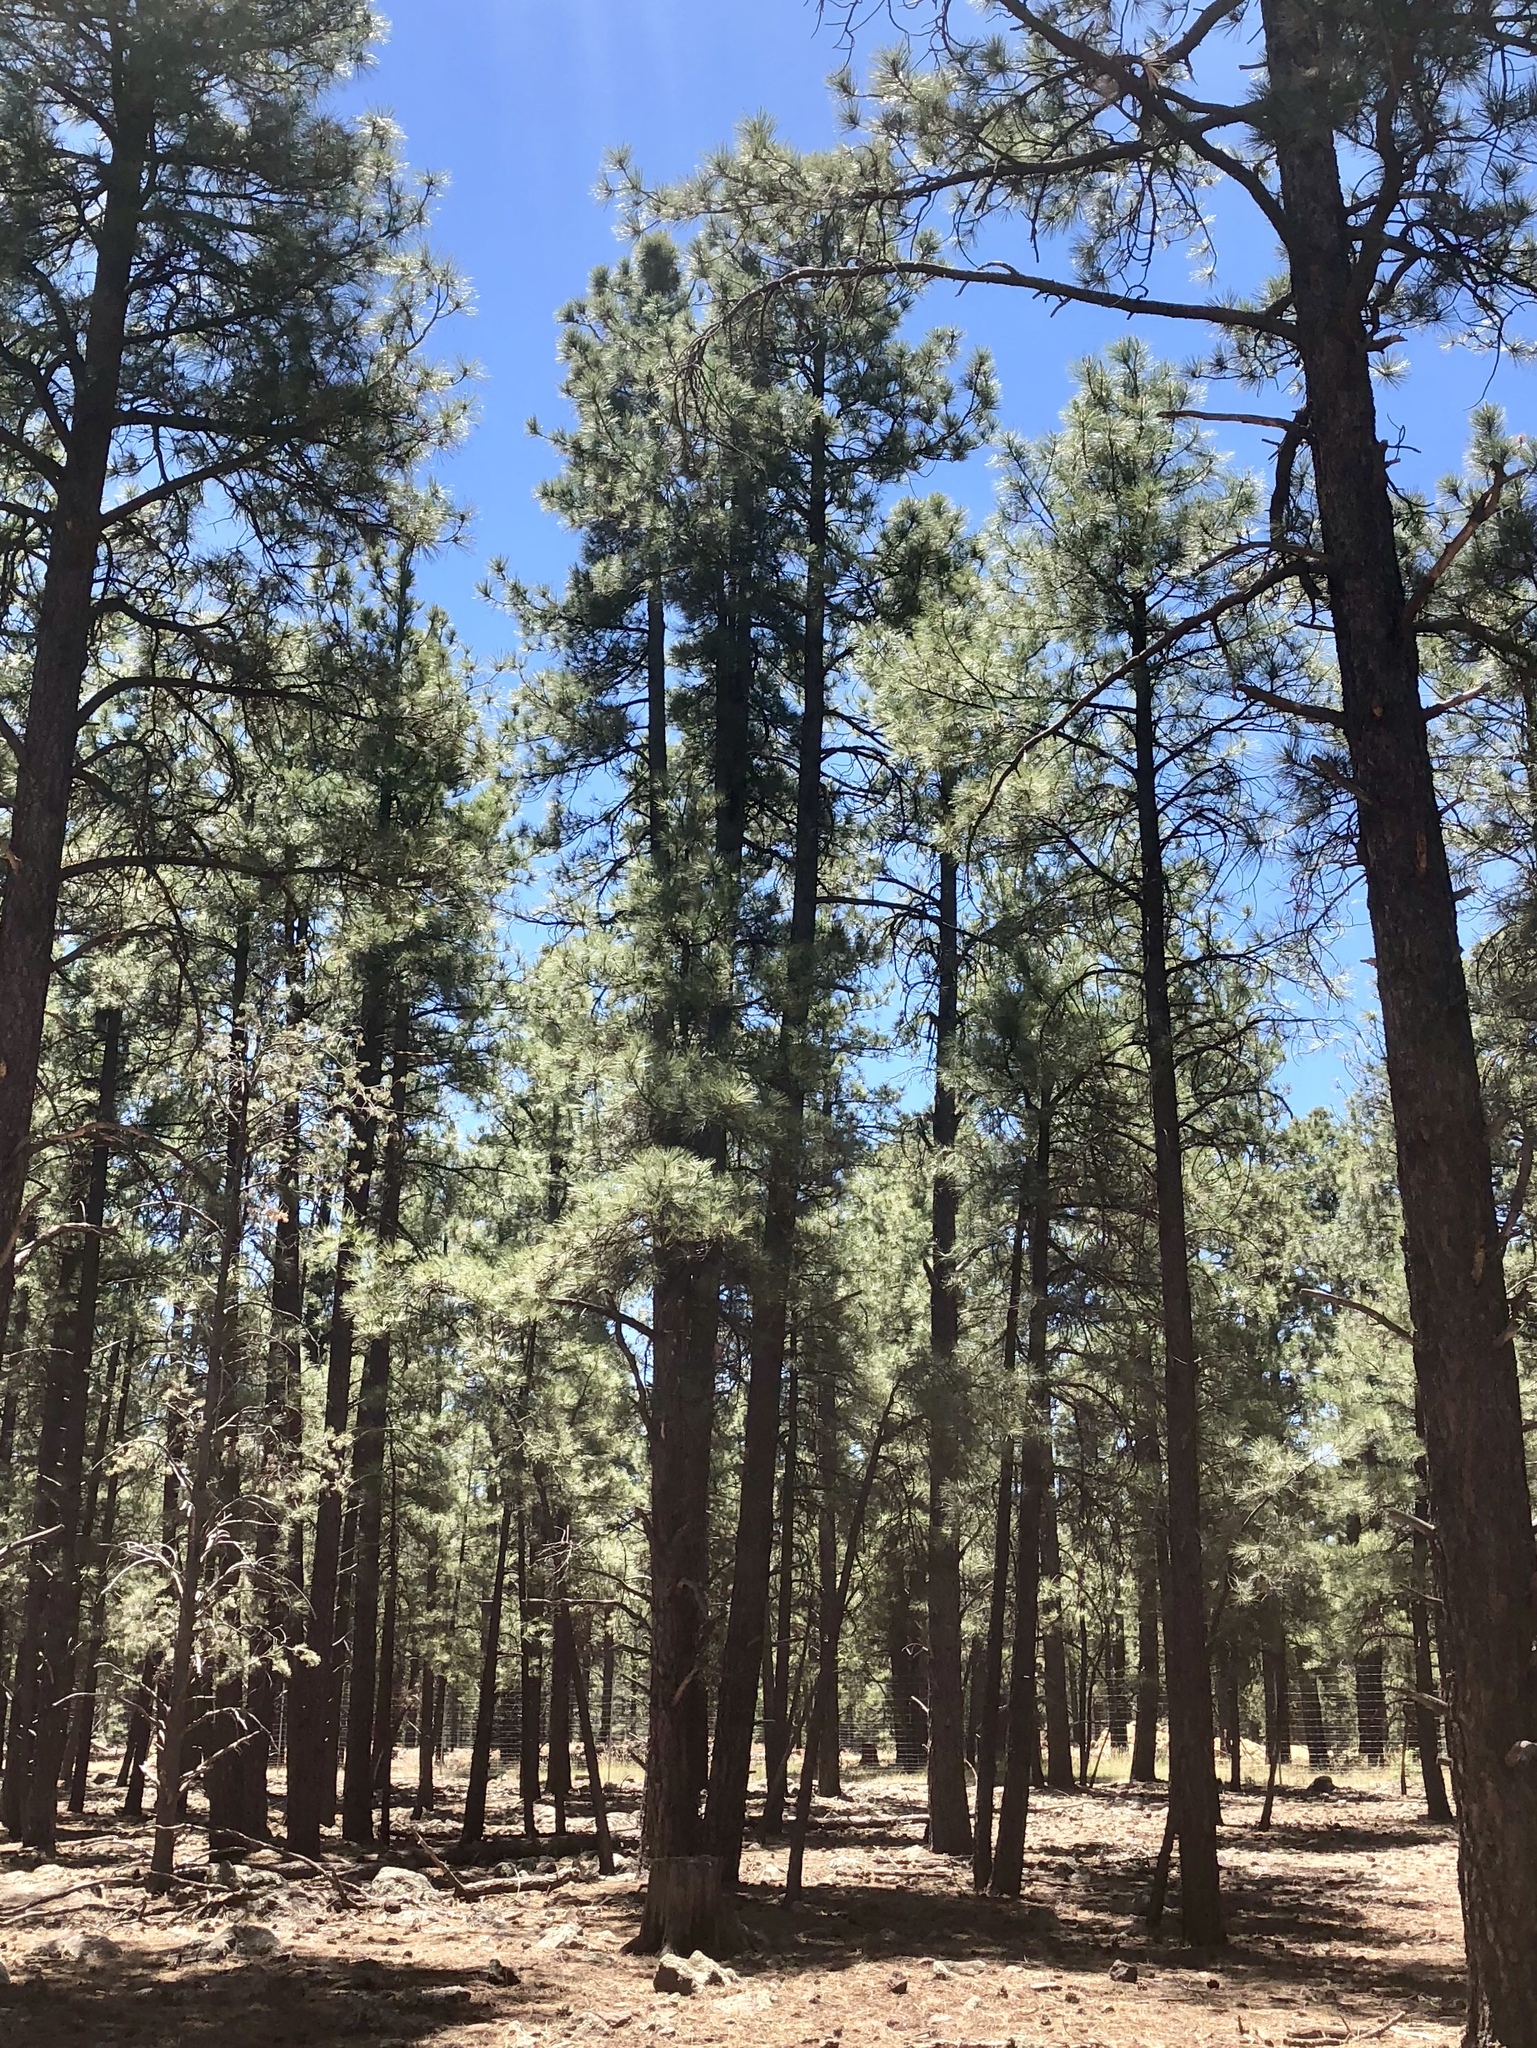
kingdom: Plantae
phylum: Tracheophyta
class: Pinopsida
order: Pinales
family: Pinaceae
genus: Pinus
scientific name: Pinus ponderosa
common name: Western yellow-pine
